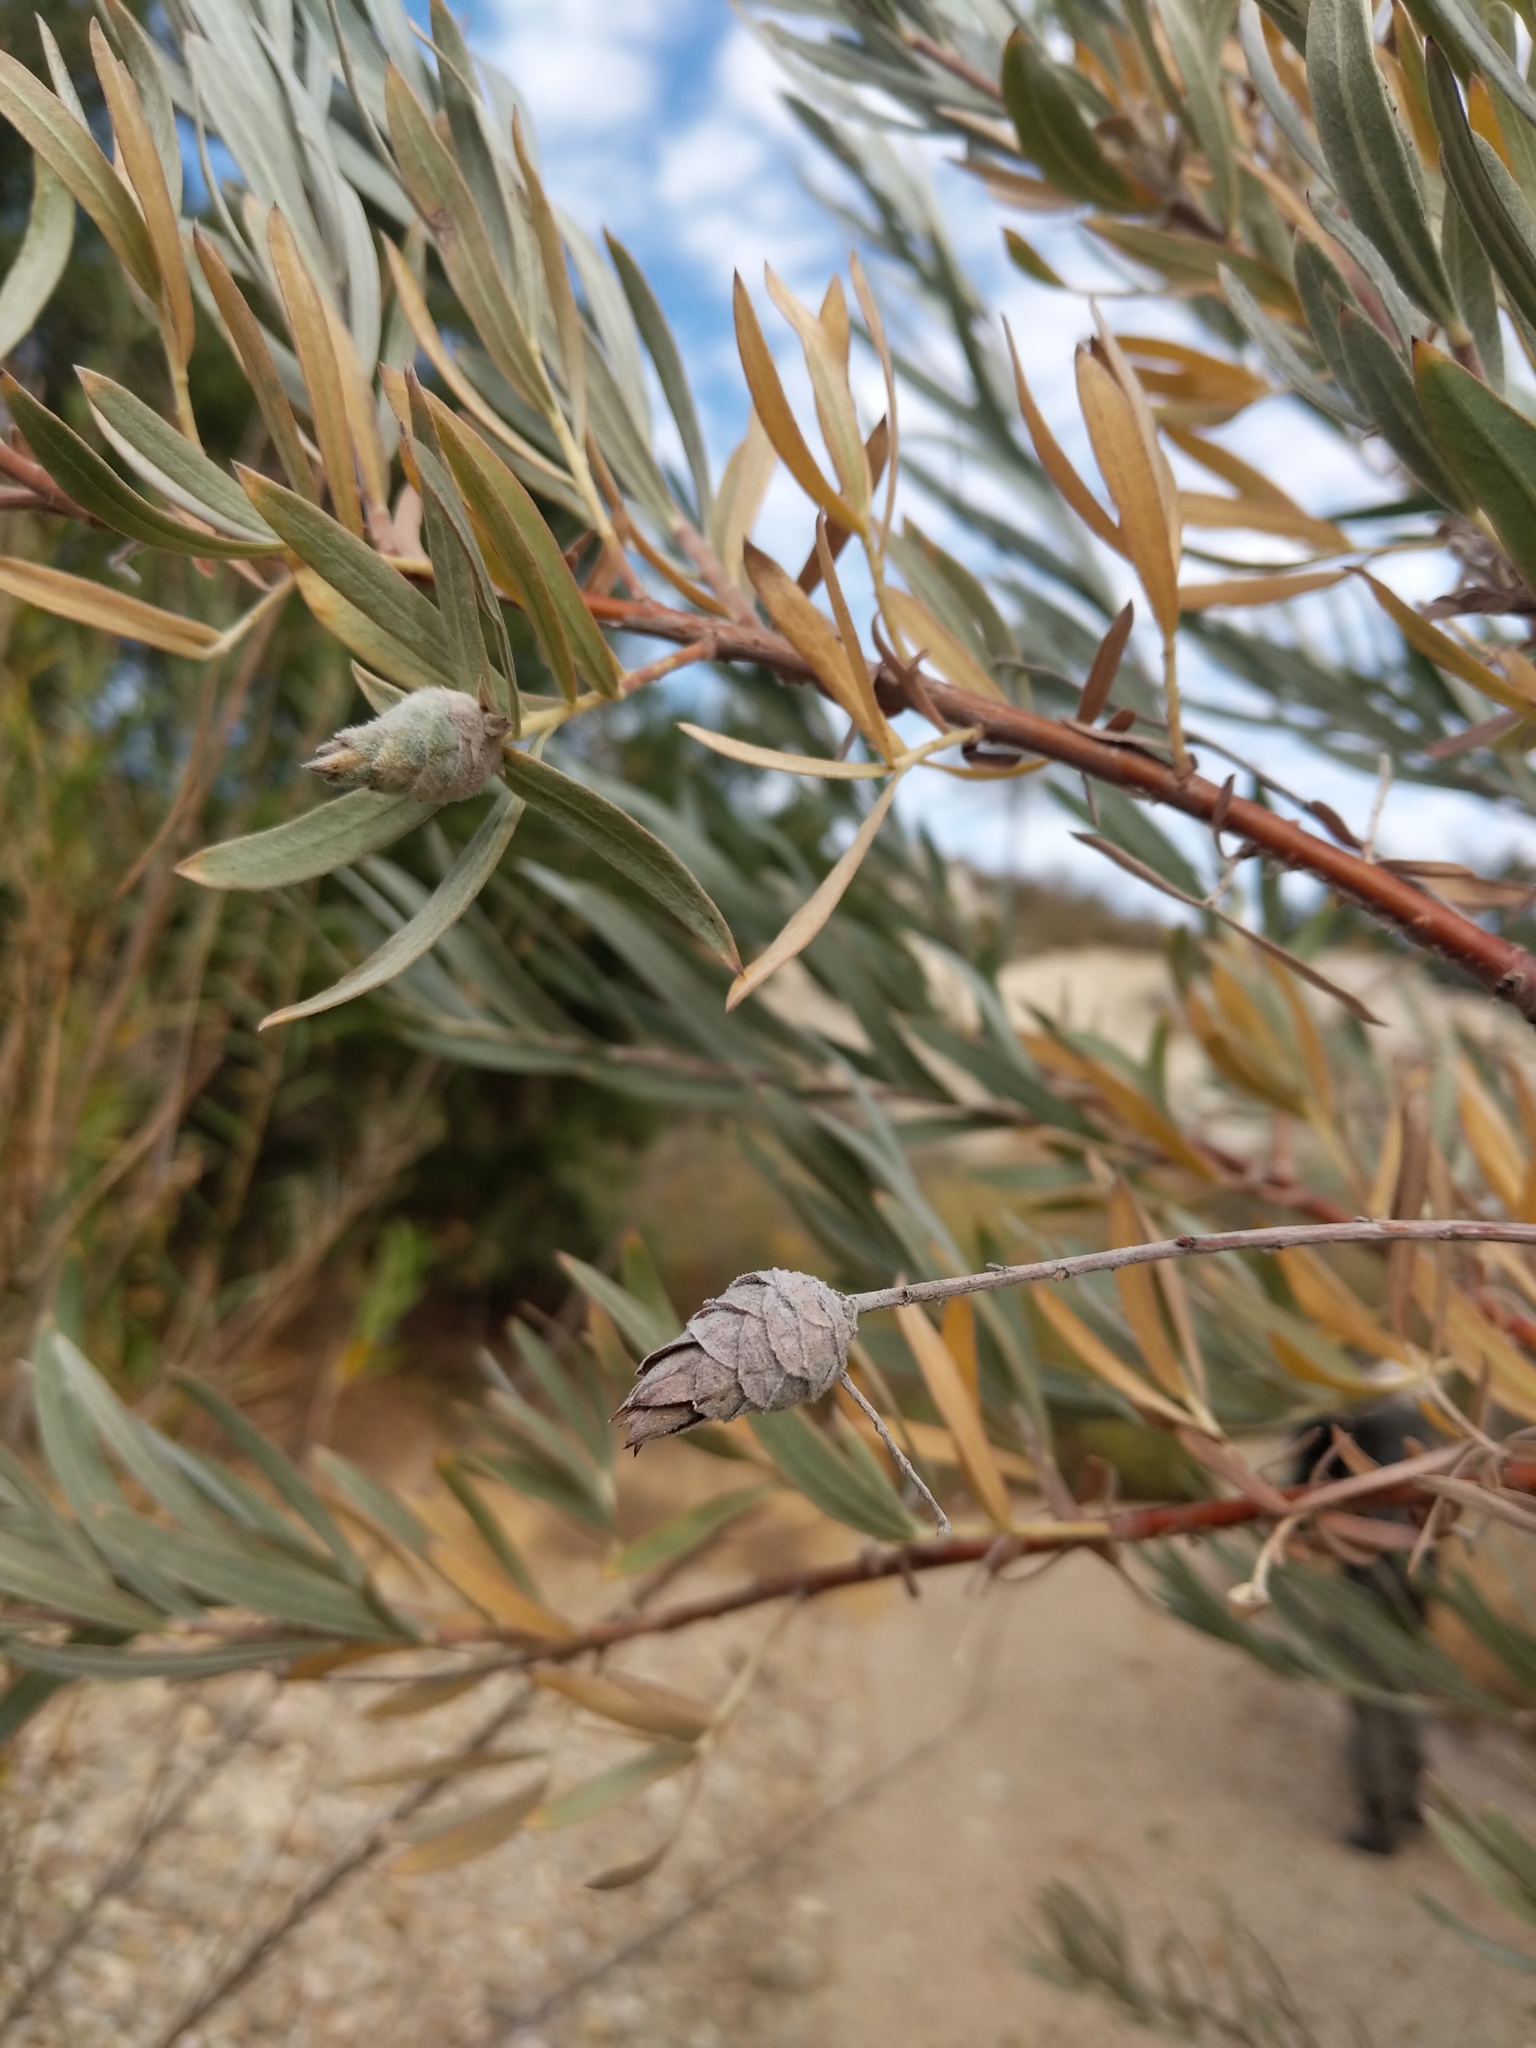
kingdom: Animalia
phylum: Arthropoda
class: Insecta
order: Diptera
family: Cecidomyiidae
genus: Rabdophaga
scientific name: Rabdophaga strobiloides
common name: Willow pinecone gall midge
